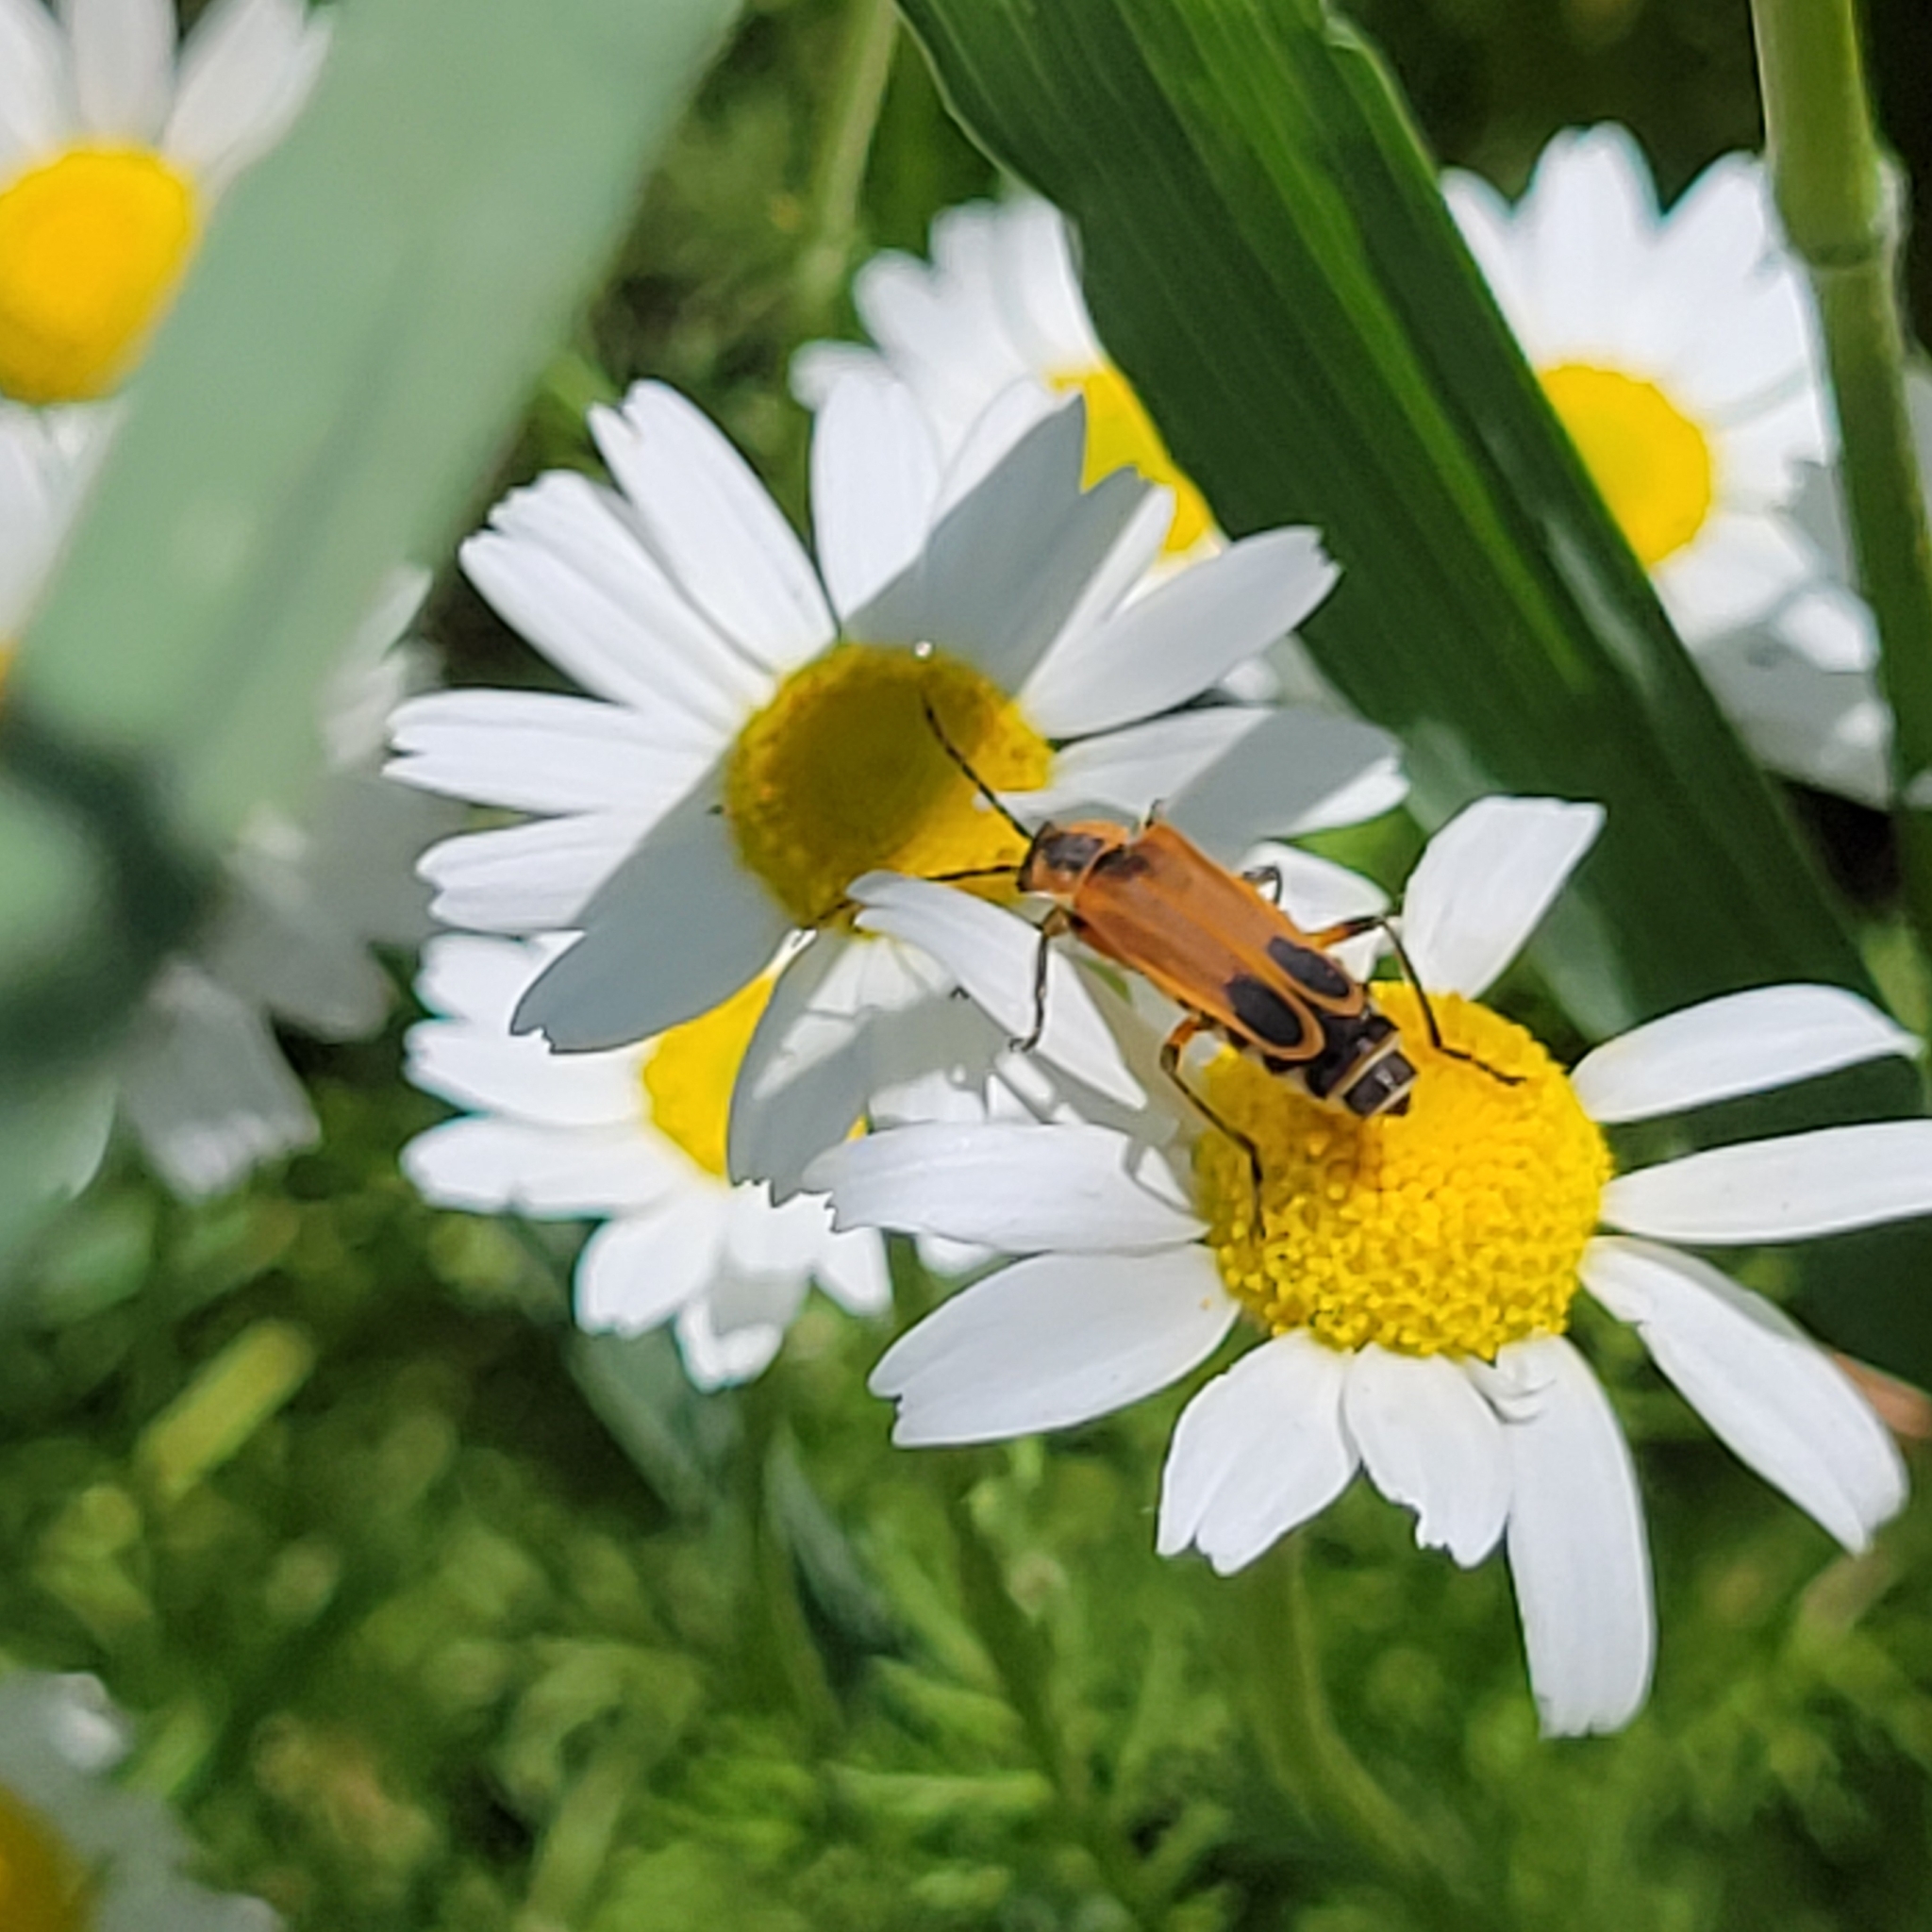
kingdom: Animalia
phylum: Arthropoda
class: Insecta
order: Coleoptera
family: Cantharidae
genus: Chauliognathus
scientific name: Chauliognathus marginatus
